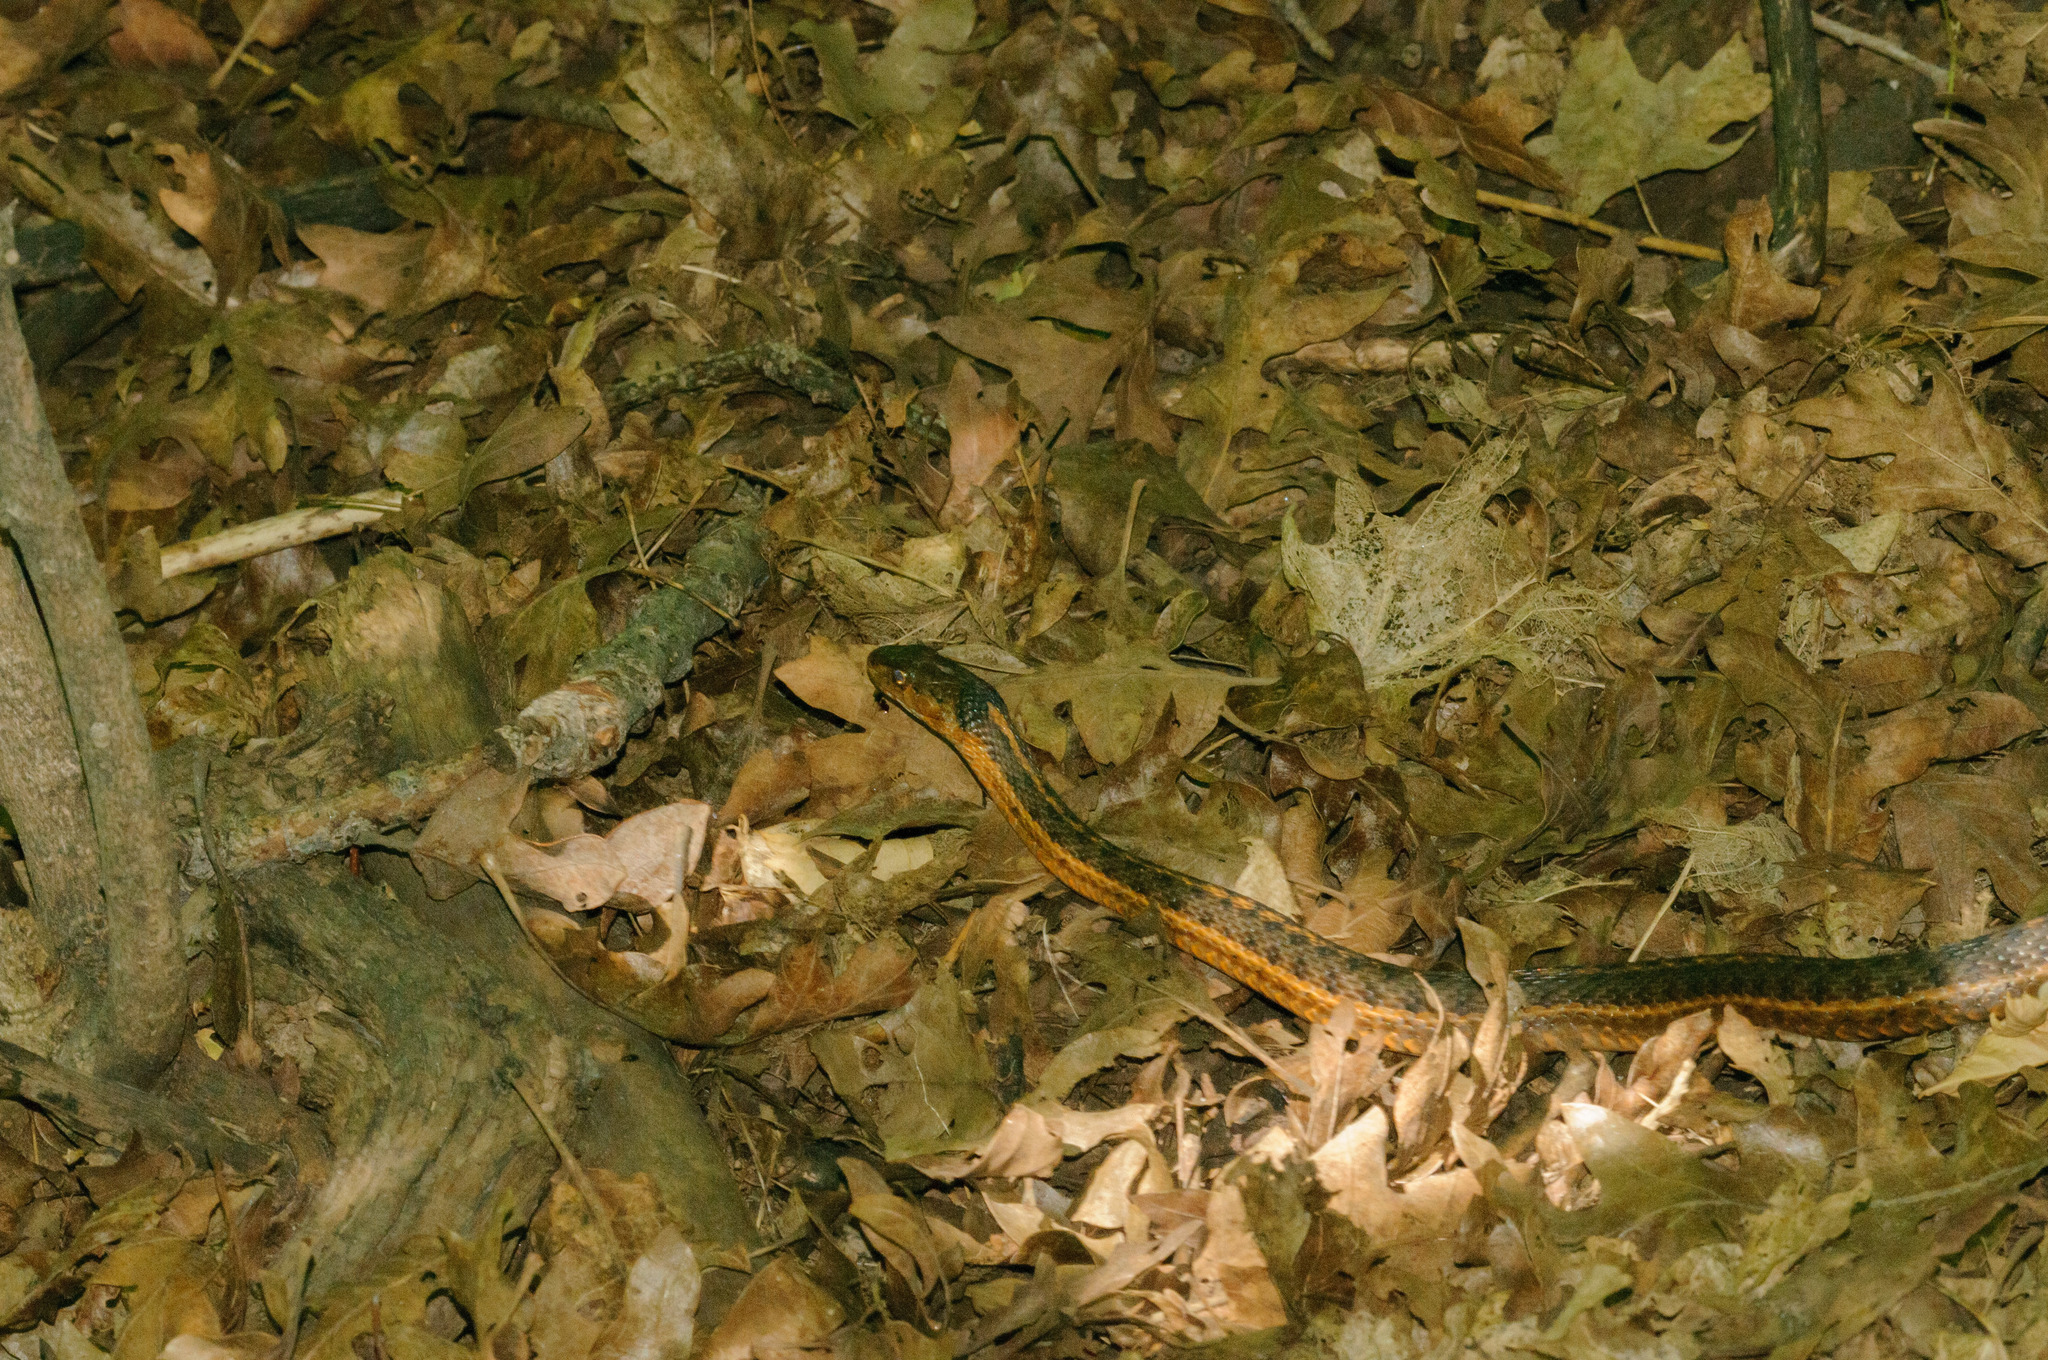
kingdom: Animalia
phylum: Chordata
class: Squamata
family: Colubridae
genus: Thamnophis
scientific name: Thamnophis elegans
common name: Western terrestrial garter snake
